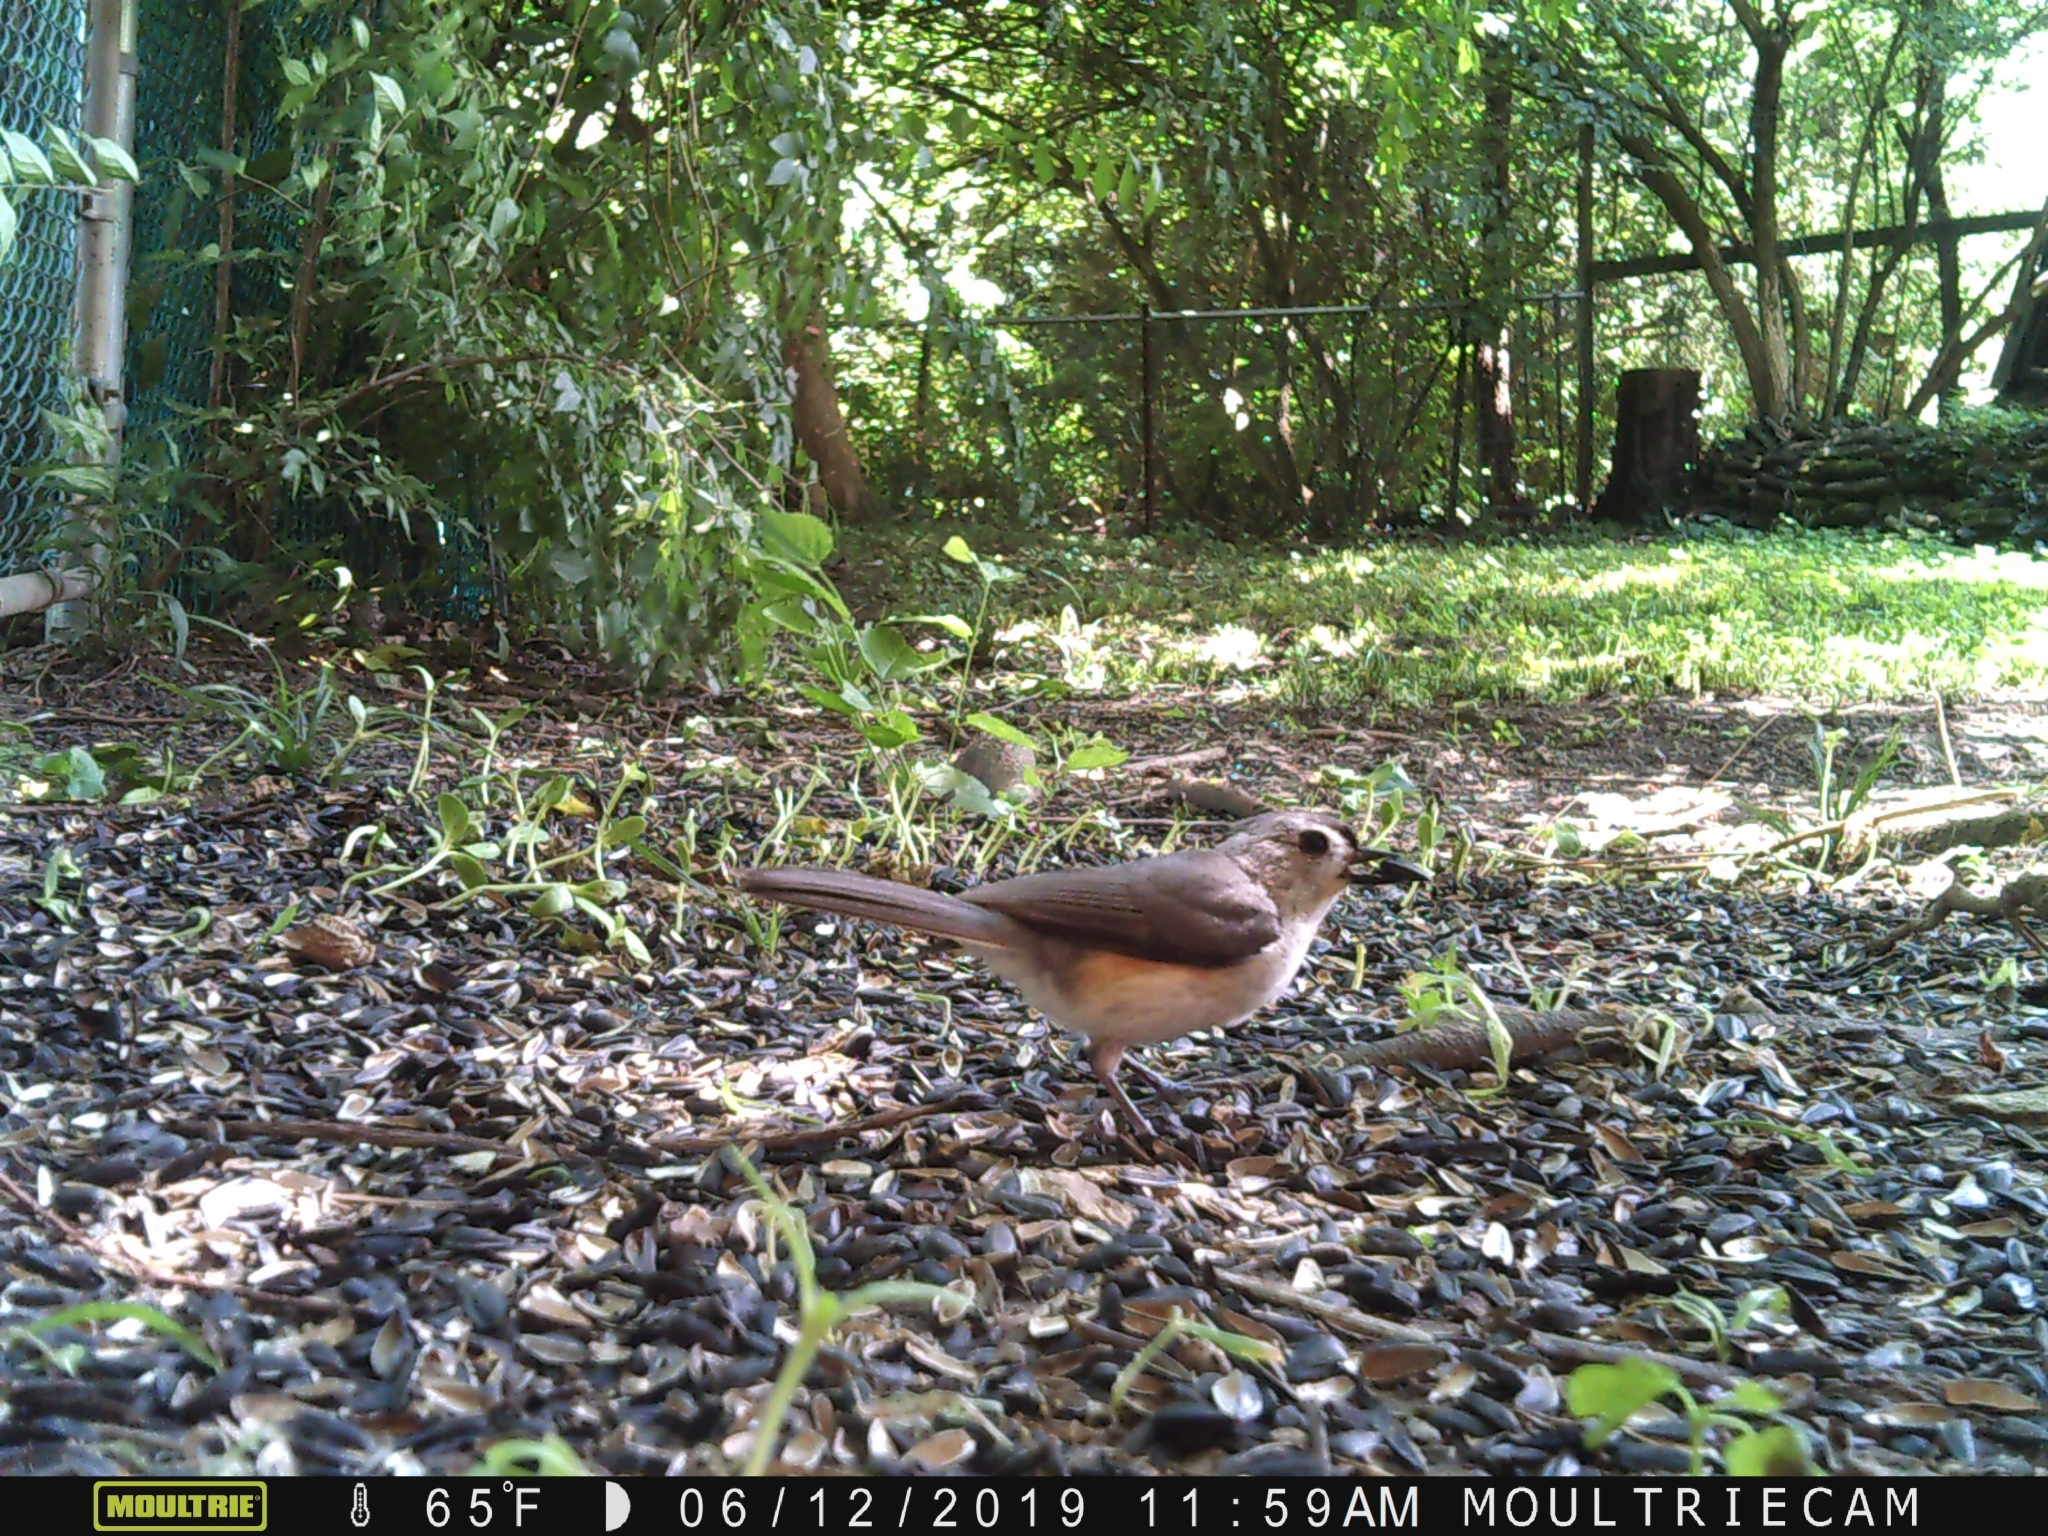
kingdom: Animalia
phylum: Chordata
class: Aves
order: Passeriformes
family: Paridae
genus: Baeolophus
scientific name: Baeolophus bicolor
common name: Tufted titmouse
